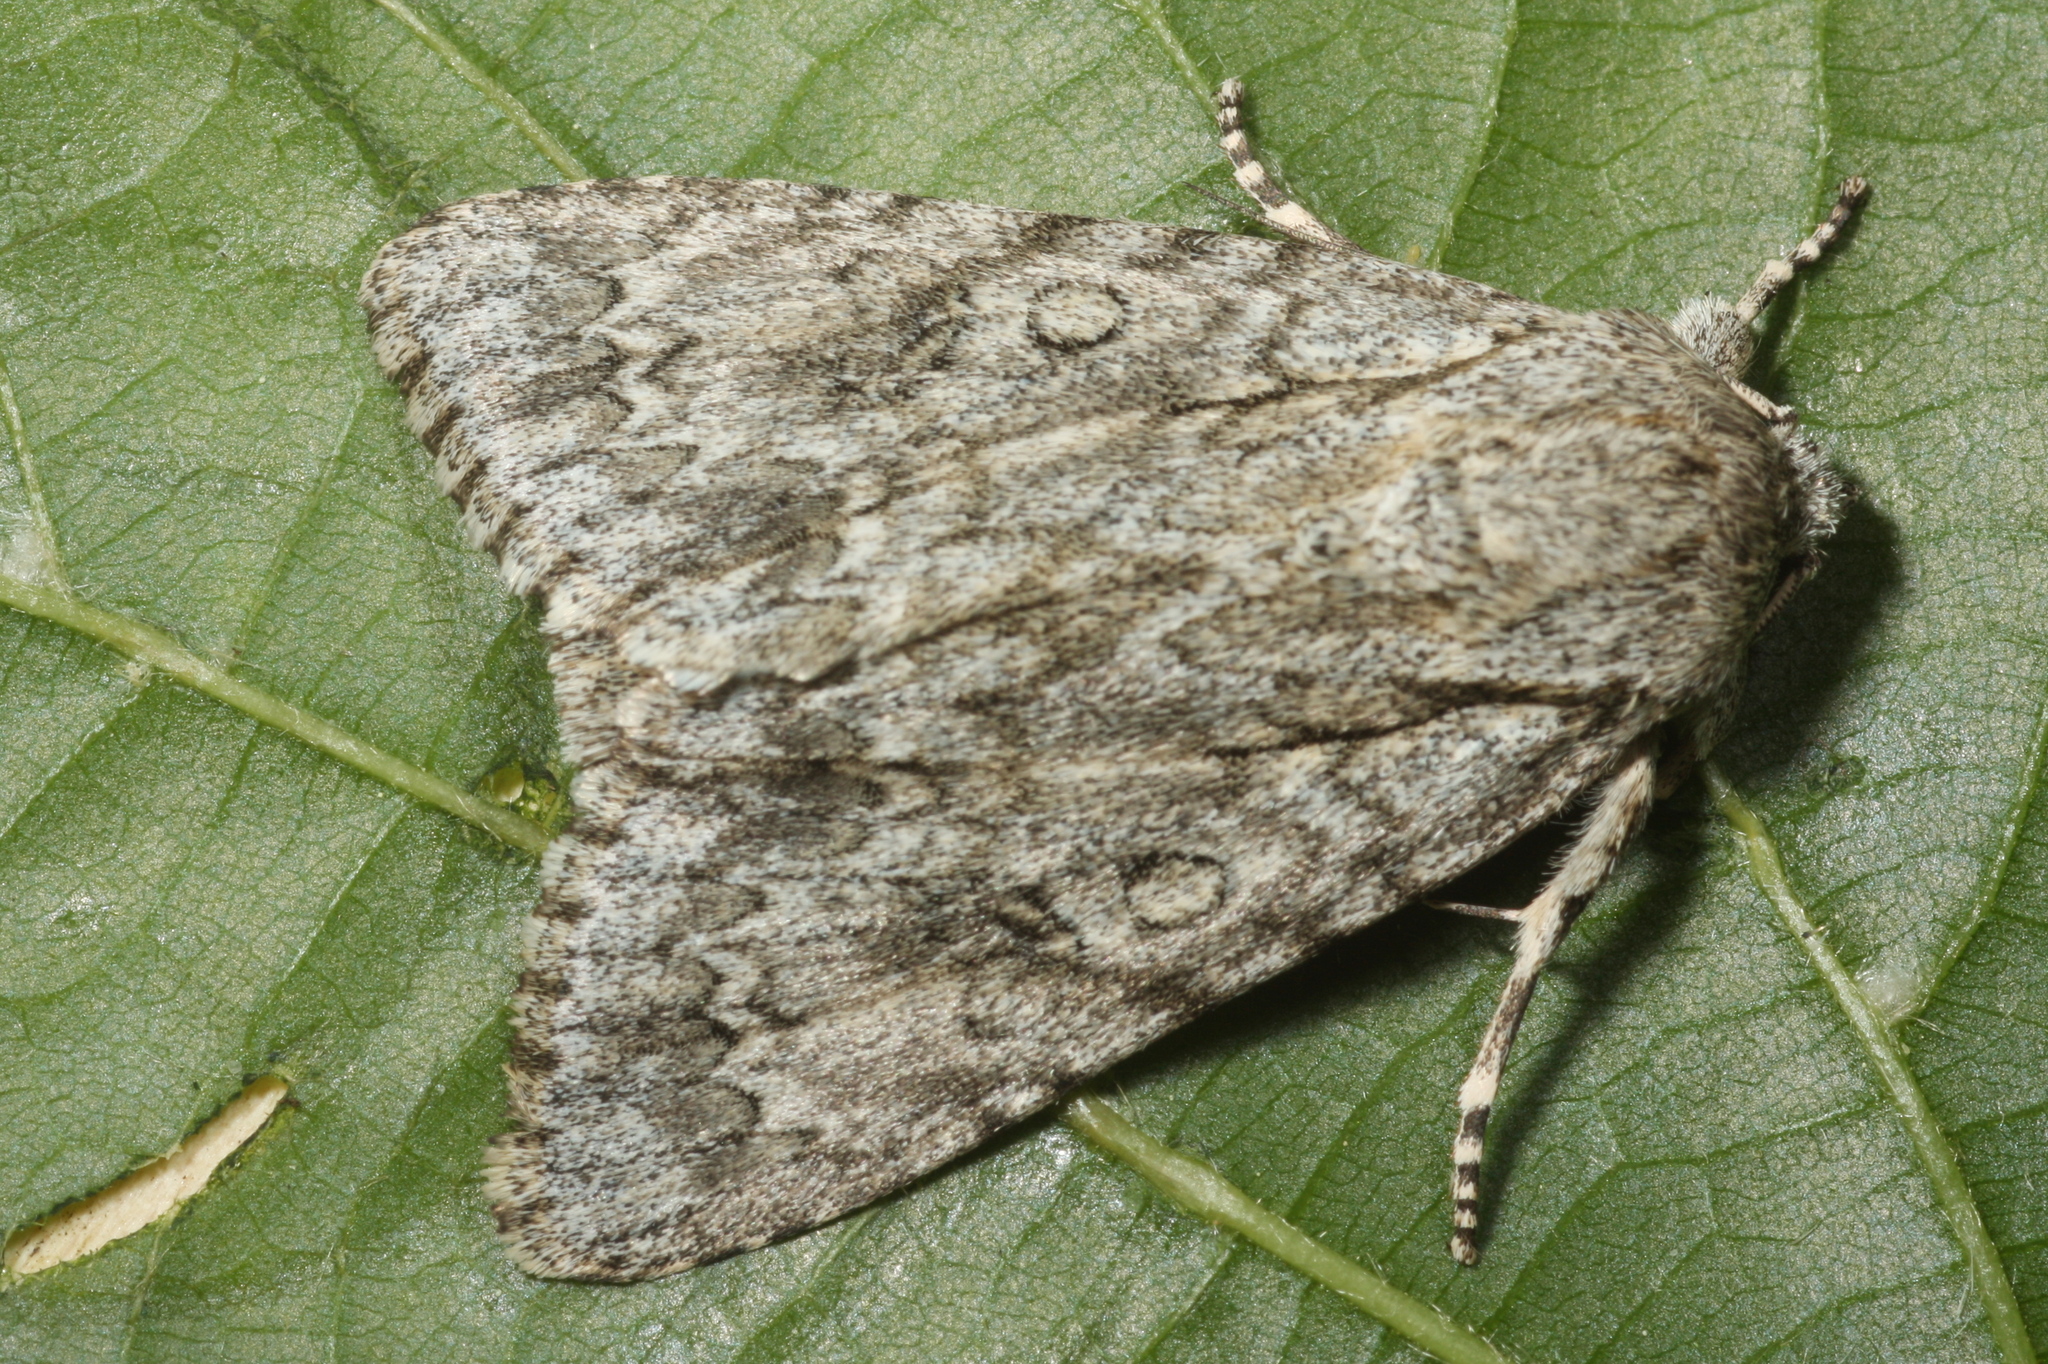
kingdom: Animalia
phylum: Arthropoda
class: Insecta
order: Lepidoptera
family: Noctuidae
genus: Acronicta
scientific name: Acronicta aceris
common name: Sycamore
